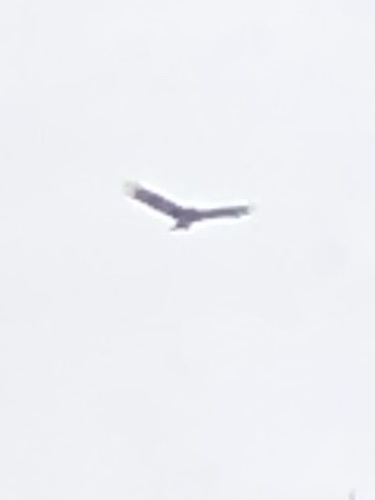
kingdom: Animalia
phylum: Chordata
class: Aves
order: Accipitriformes
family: Cathartidae
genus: Cathartes
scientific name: Cathartes aura
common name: Turkey vulture
